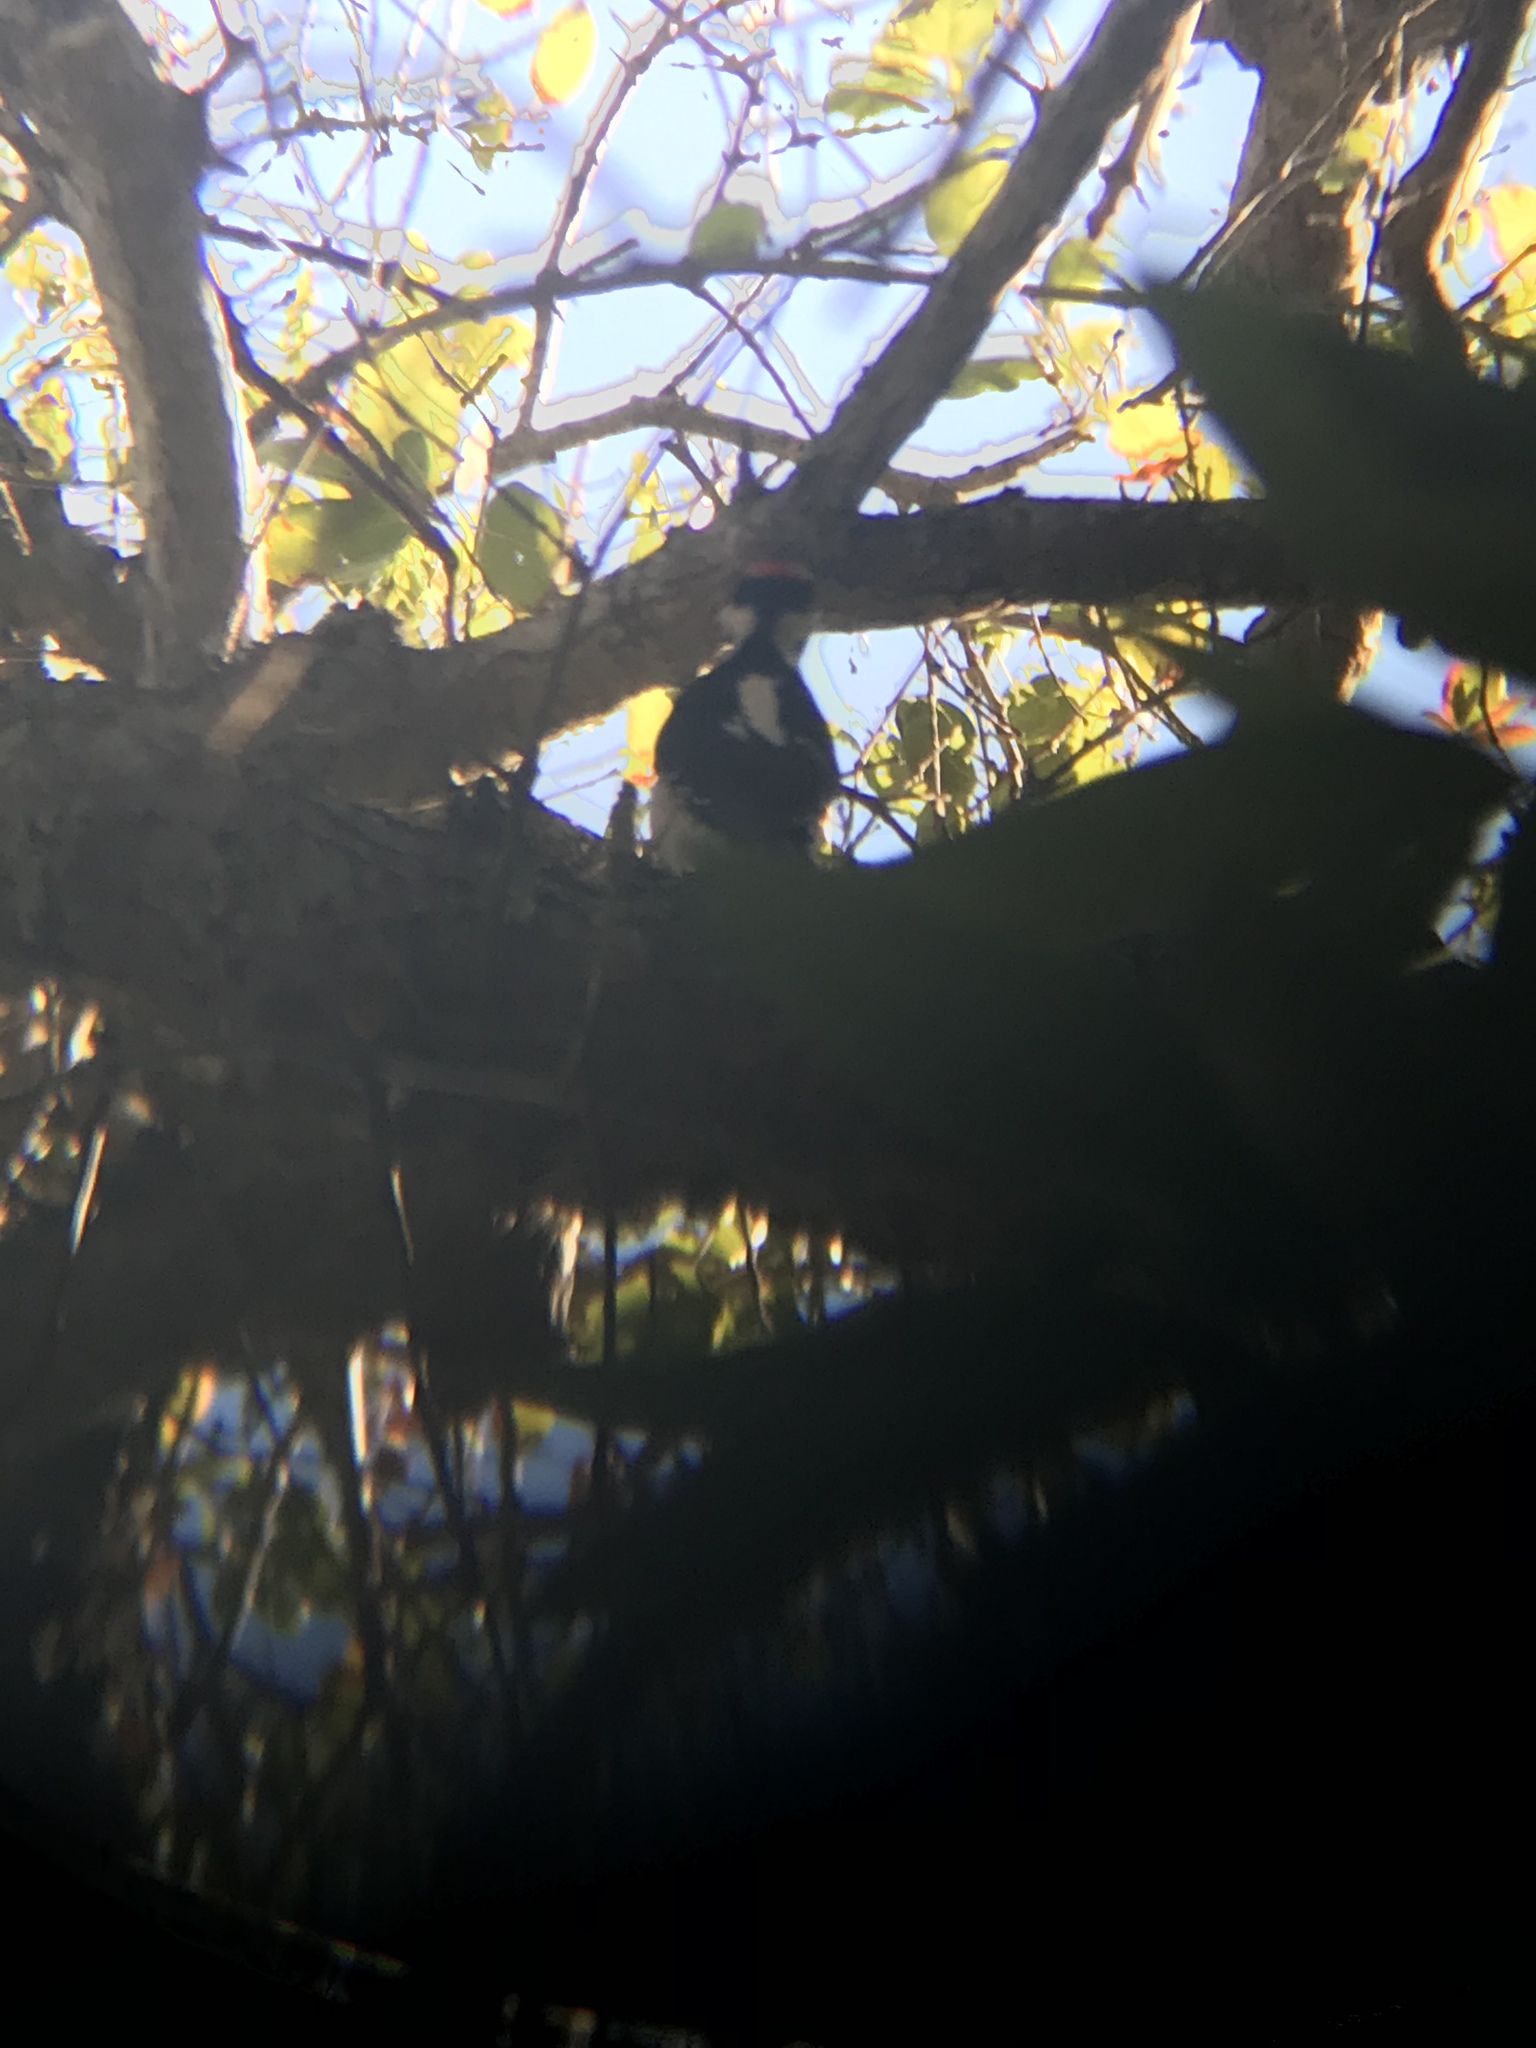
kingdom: Animalia
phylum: Chordata
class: Aves
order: Piciformes
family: Picidae
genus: Leuconotopicus
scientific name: Leuconotopicus villosus
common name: Hairy woodpecker
